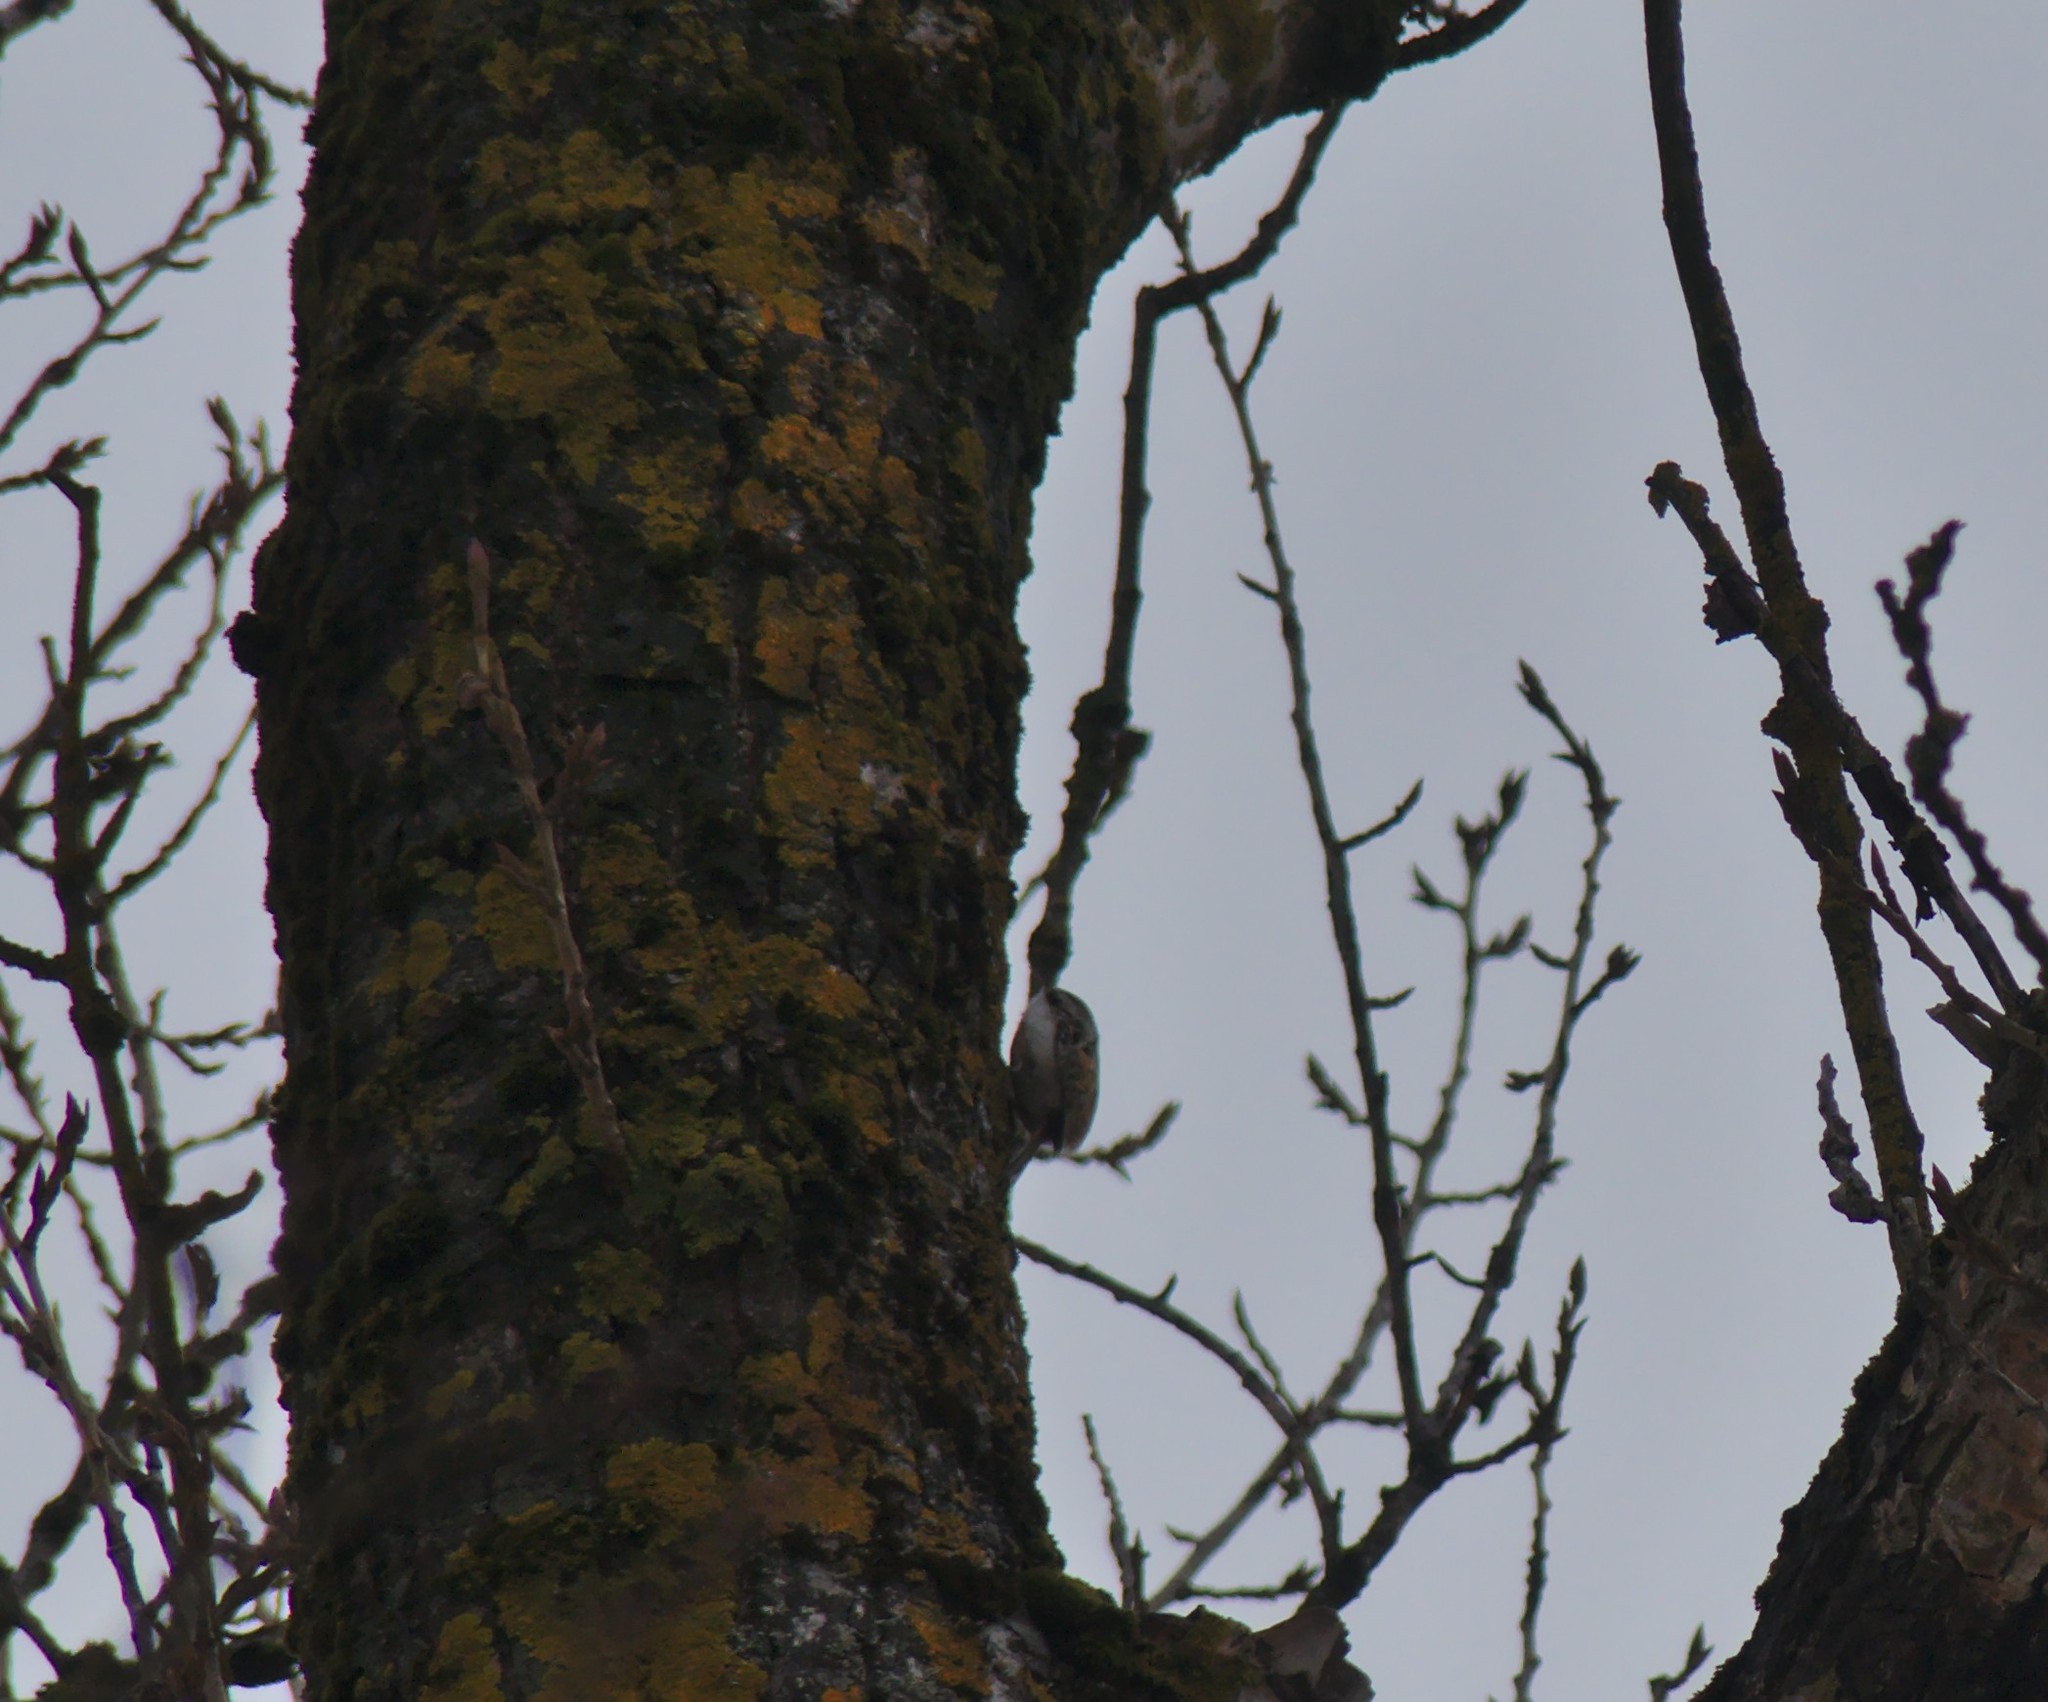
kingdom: Animalia
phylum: Chordata
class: Aves
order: Passeriformes
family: Certhiidae
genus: Certhia
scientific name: Certhia familiaris
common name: Eurasian treecreeper
